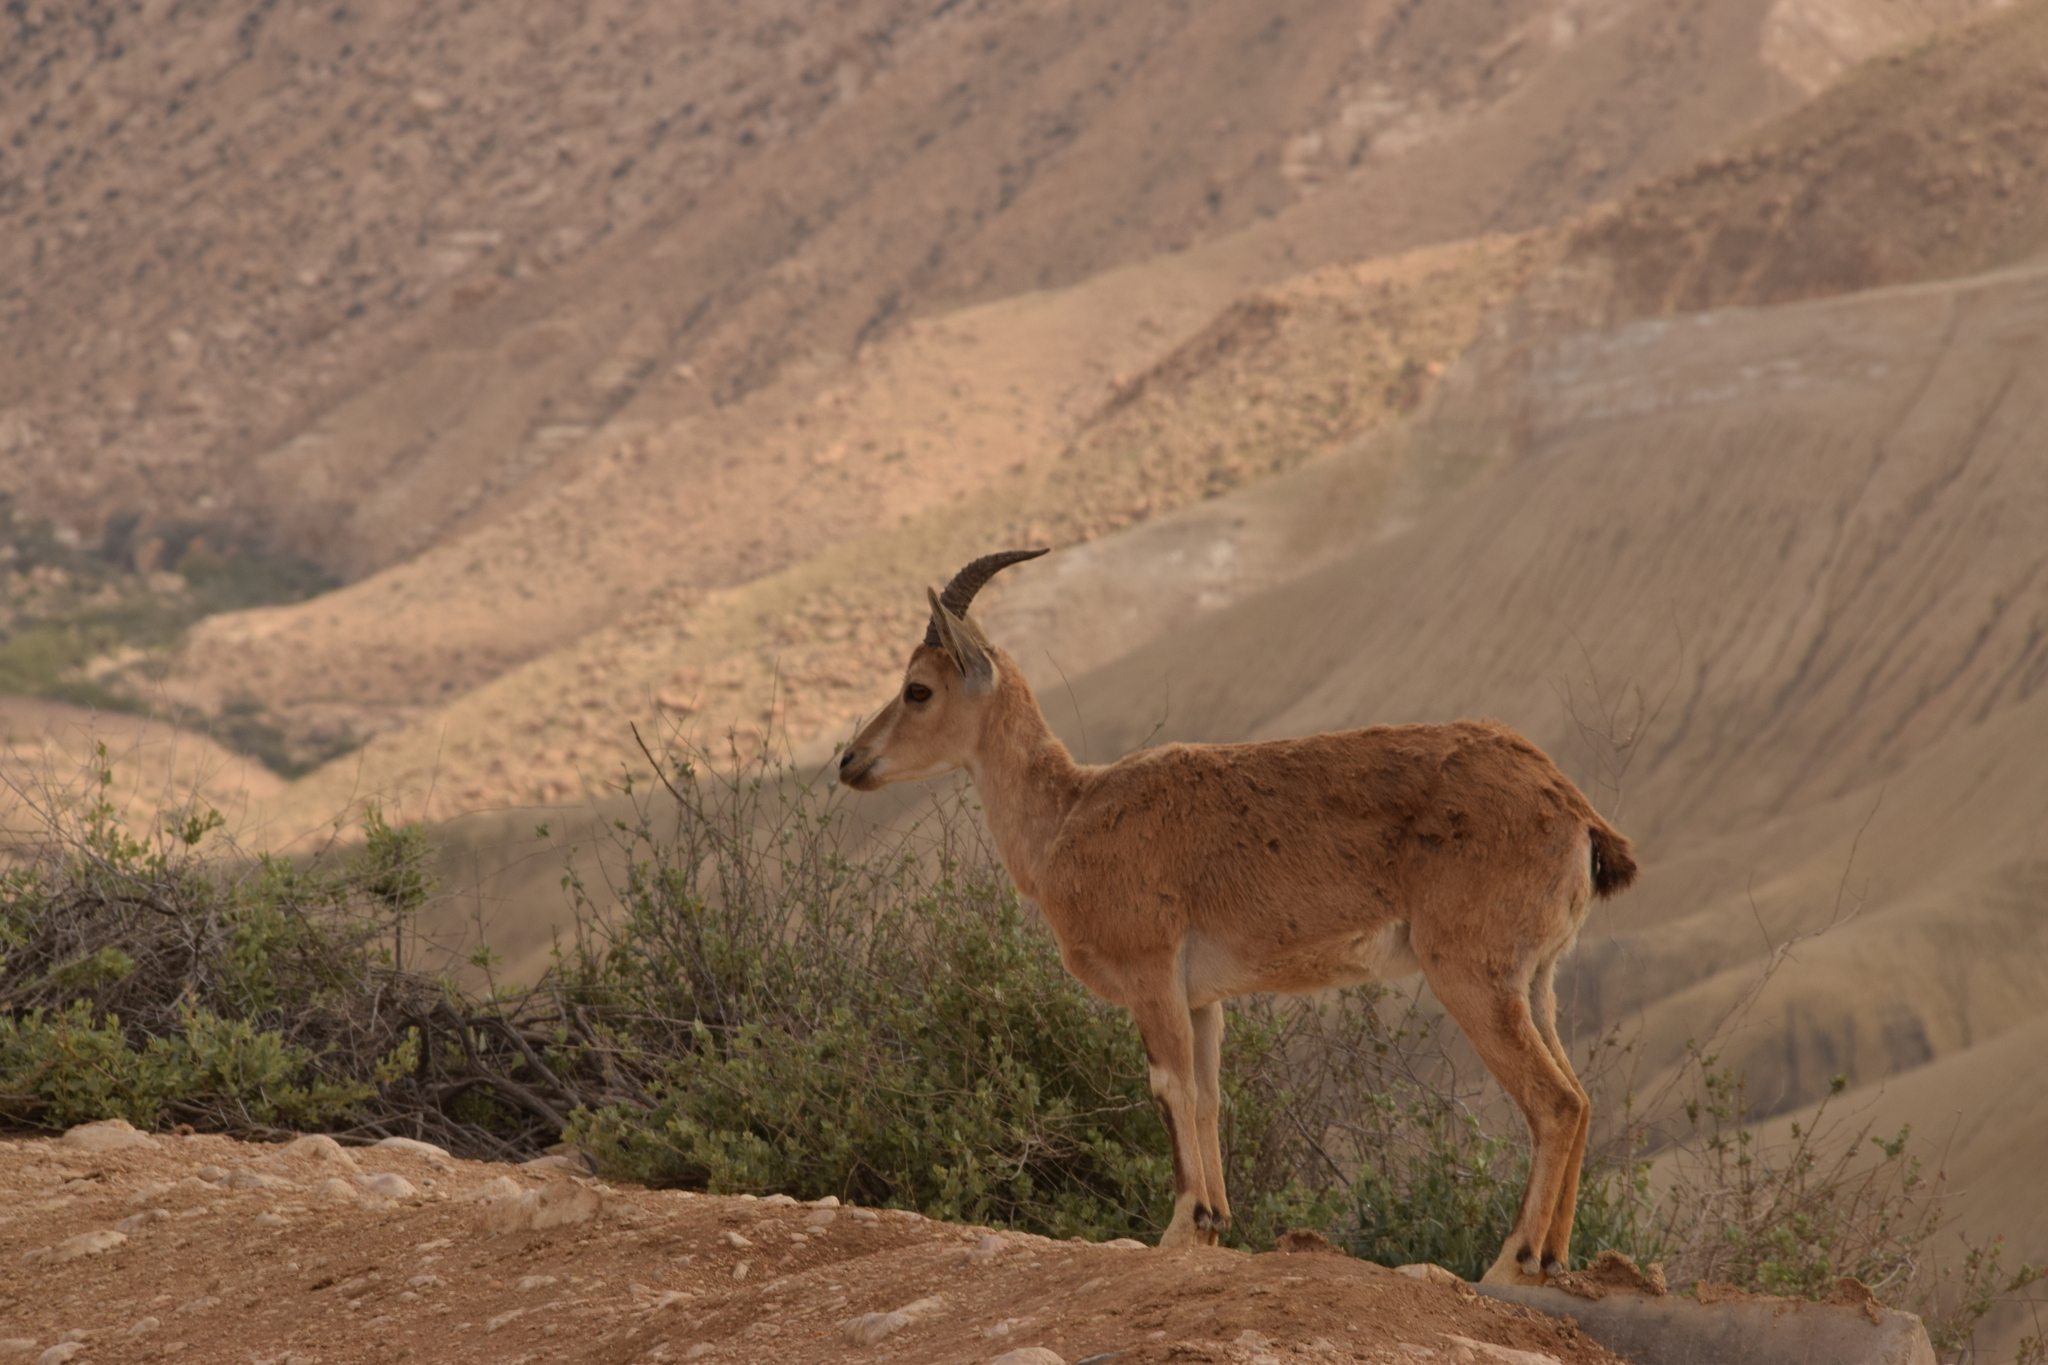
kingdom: Animalia
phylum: Chordata
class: Mammalia
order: Artiodactyla
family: Bovidae
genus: Capra
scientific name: Capra nubiana
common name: Nubian ibex
